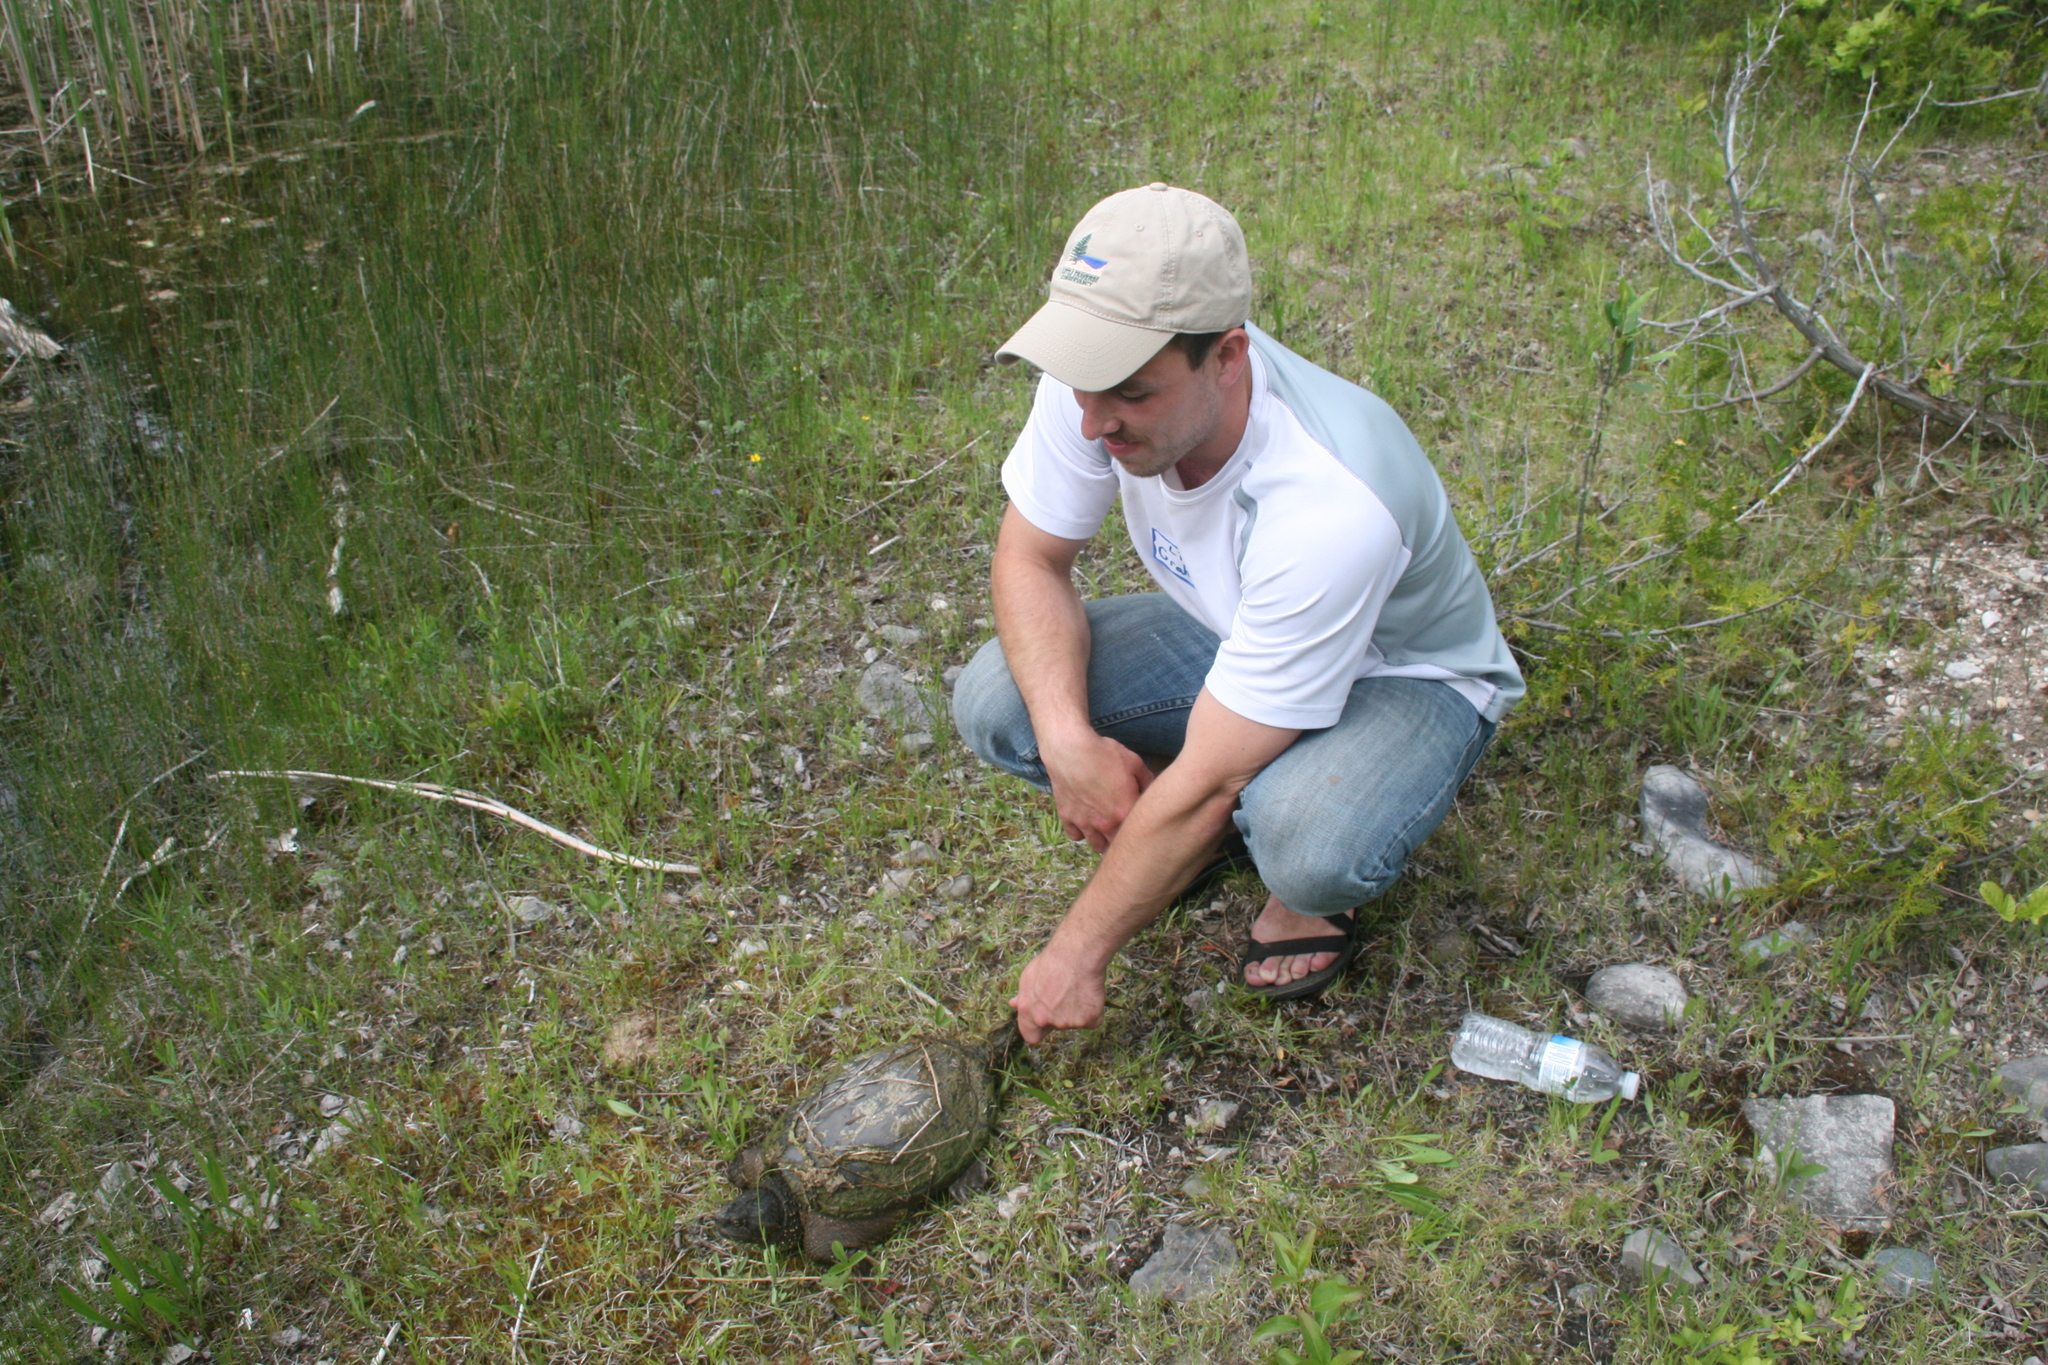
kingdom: Animalia
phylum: Chordata
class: Testudines
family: Chelydridae
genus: Chelydra
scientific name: Chelydra serpentina
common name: Common snapping turtle
